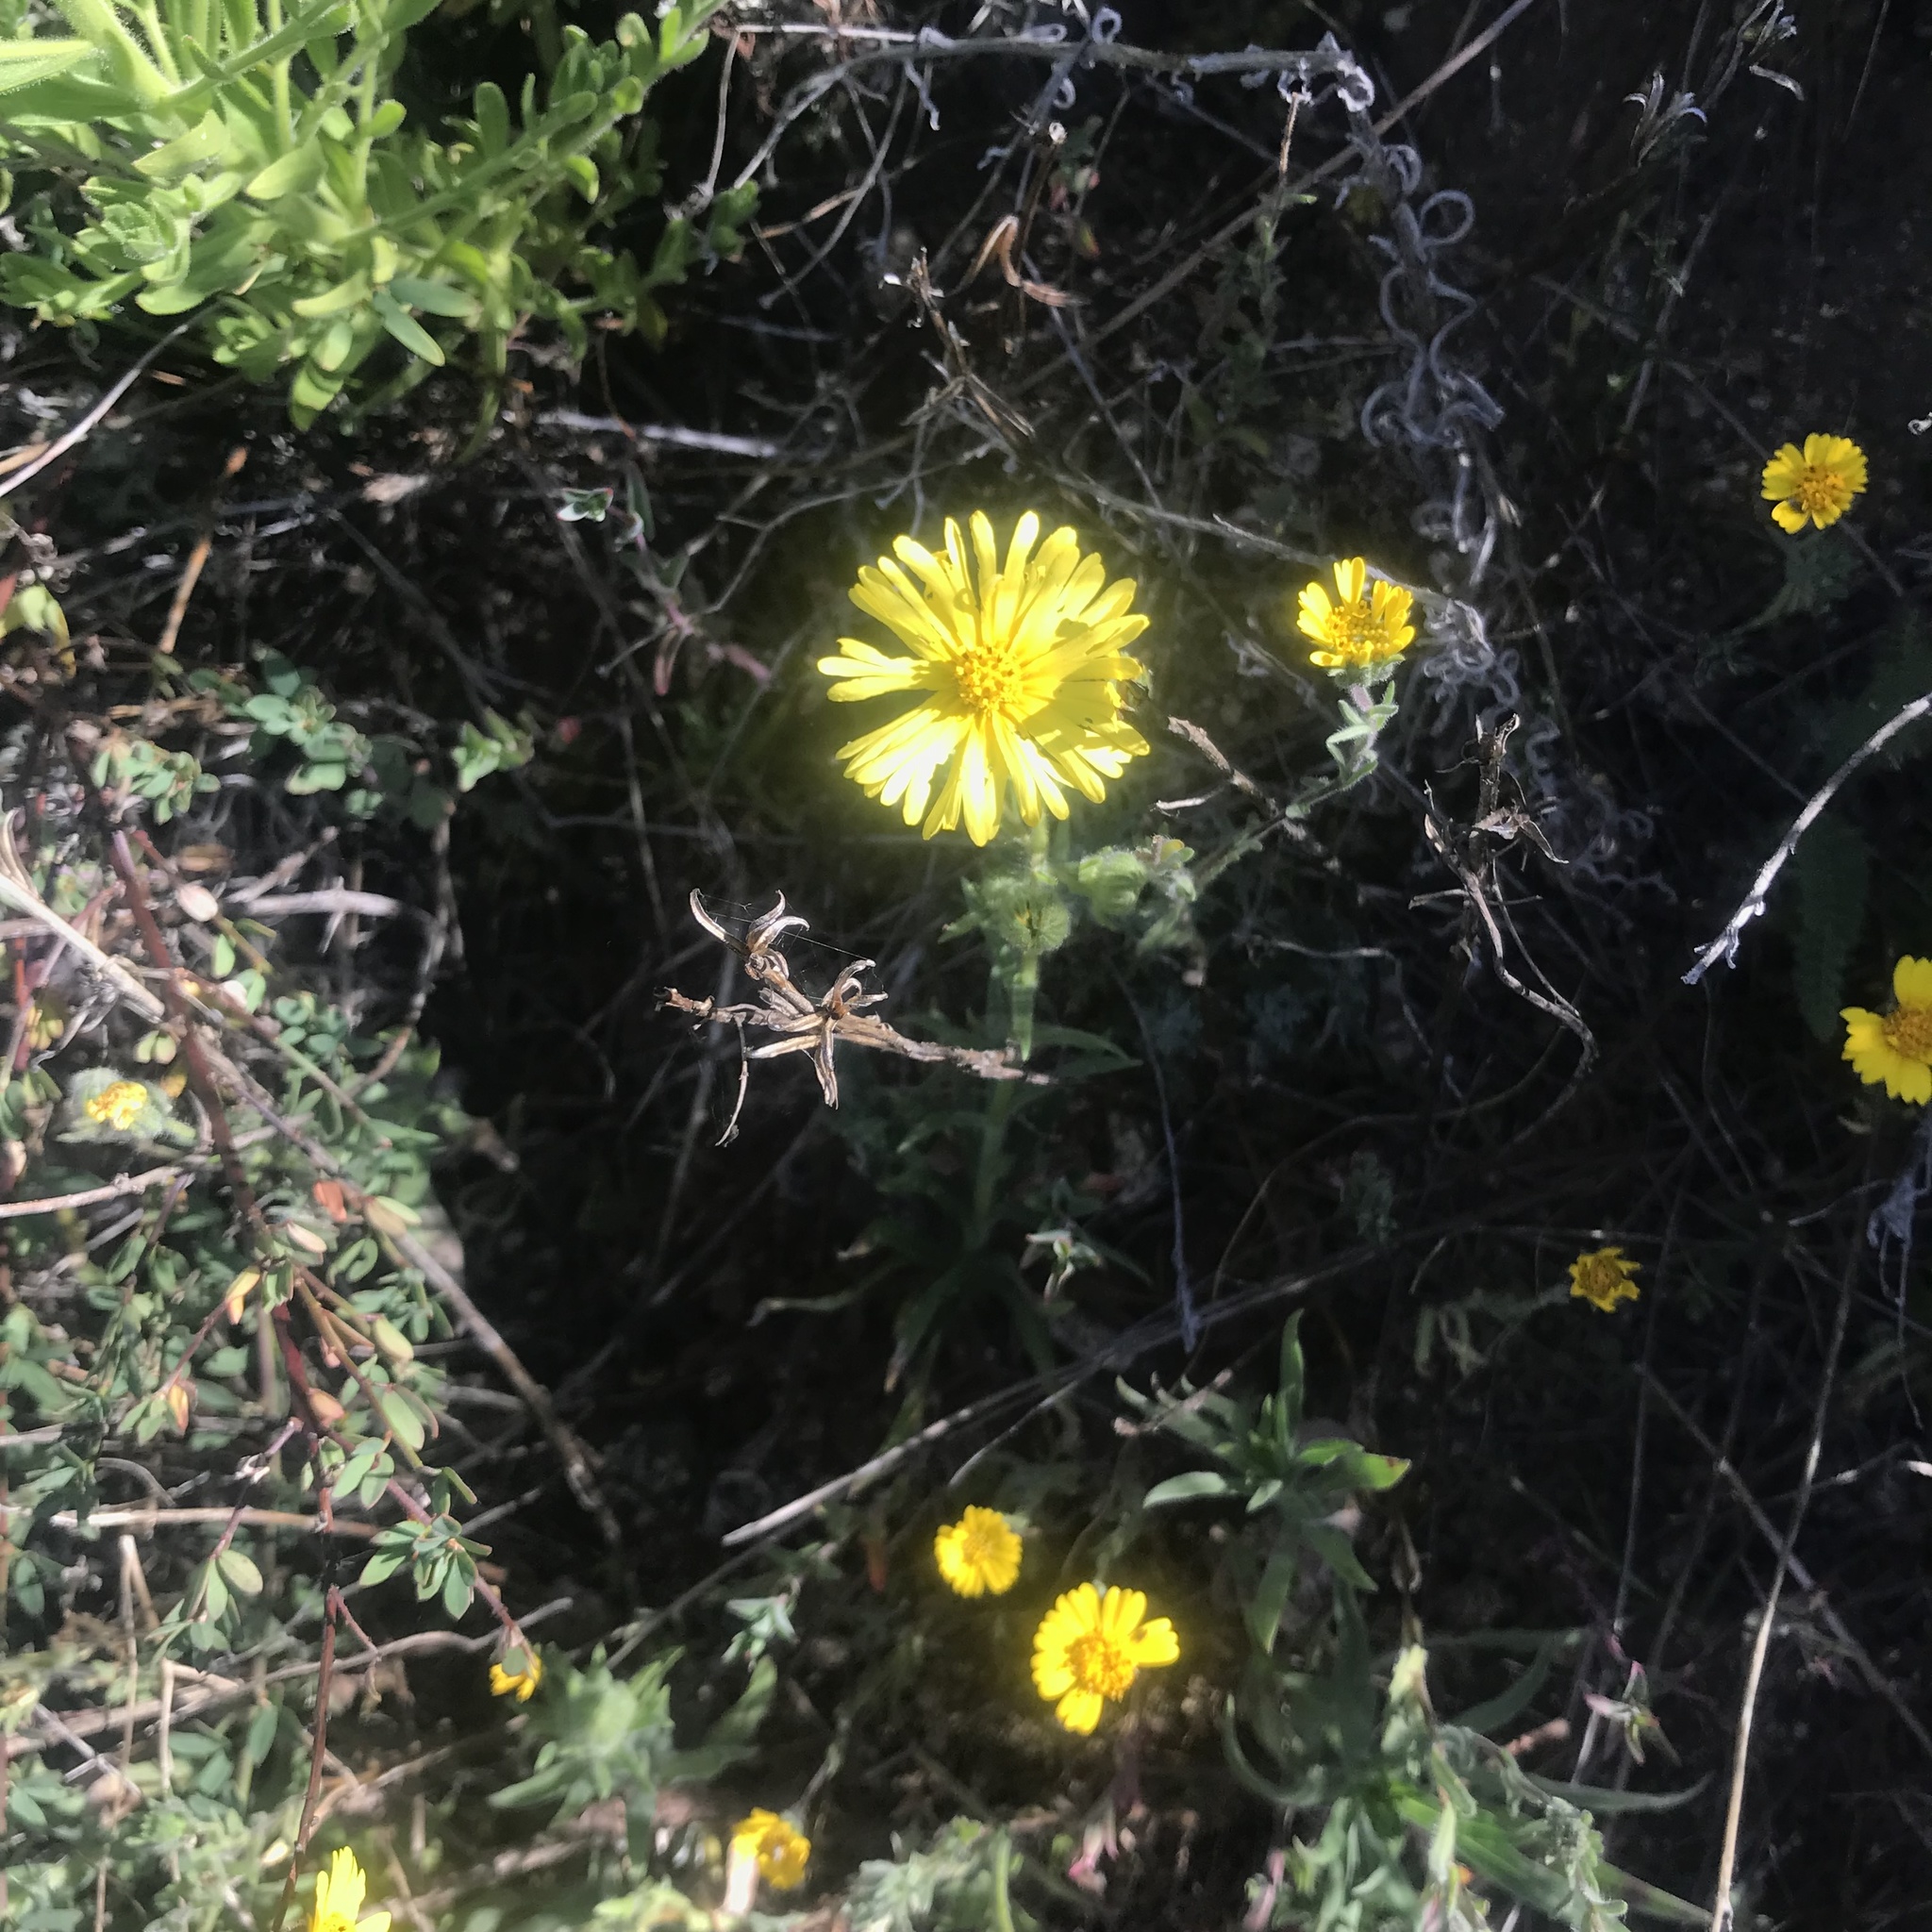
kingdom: Plantae
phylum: Tracheophyta
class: Magnoliopsida
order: Asterales
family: Asteraceae
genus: Madia
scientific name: Madia elegans
